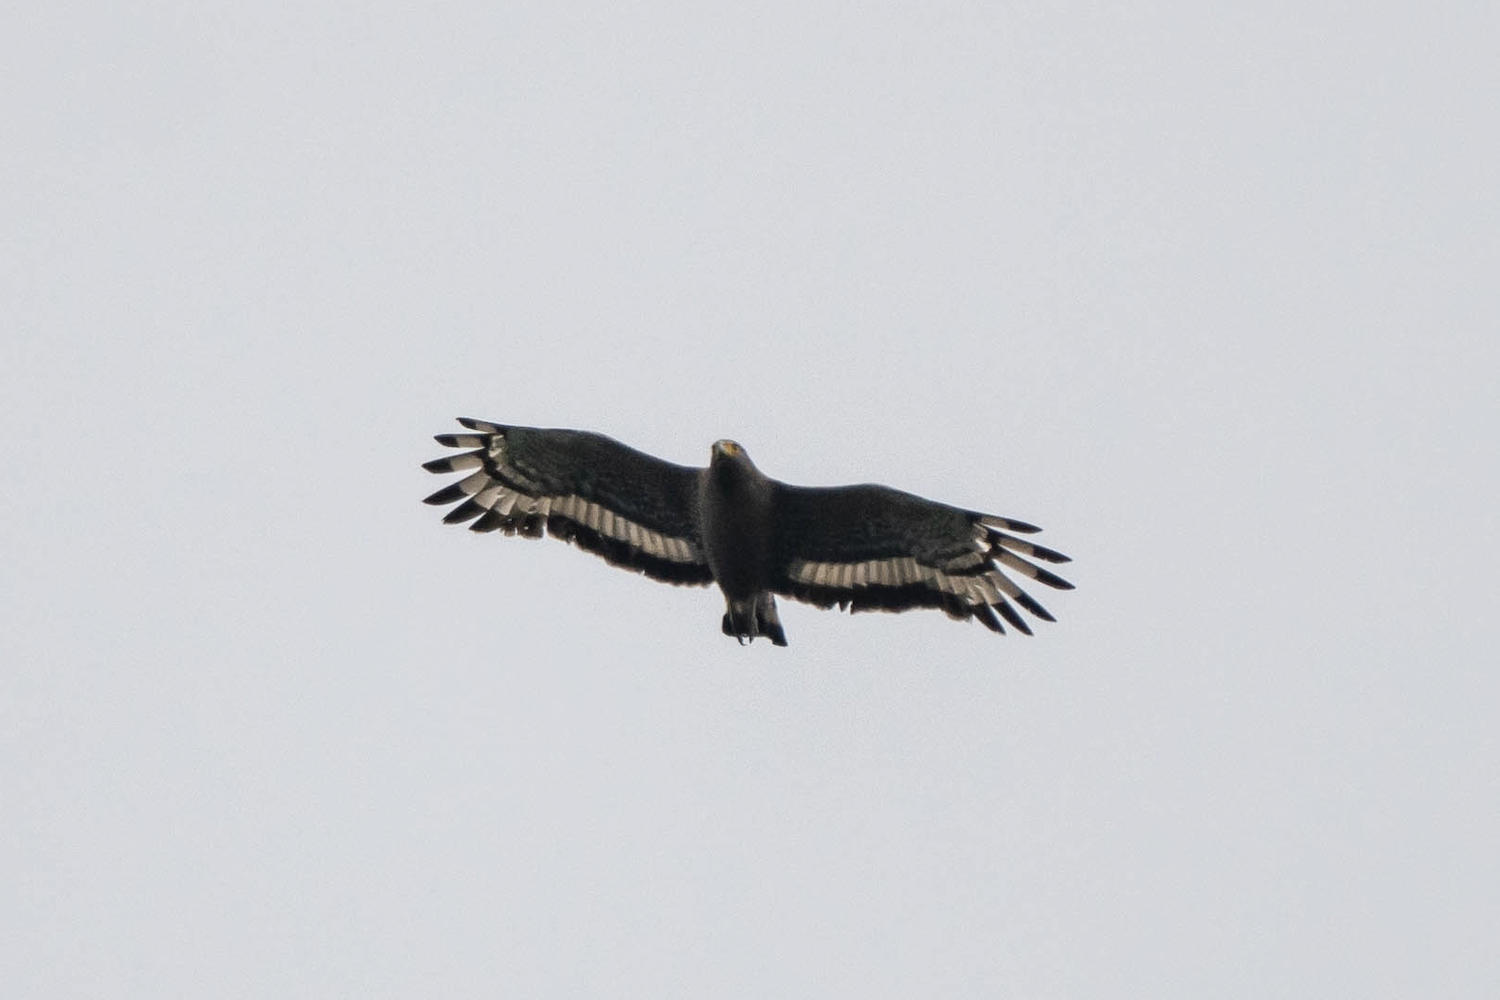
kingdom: Animalia
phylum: Chordata
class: Aves
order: Accipitriformes
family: Accipitridae
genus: Spilornis
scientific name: Spilornis cheela
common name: Crested serpent eagle
